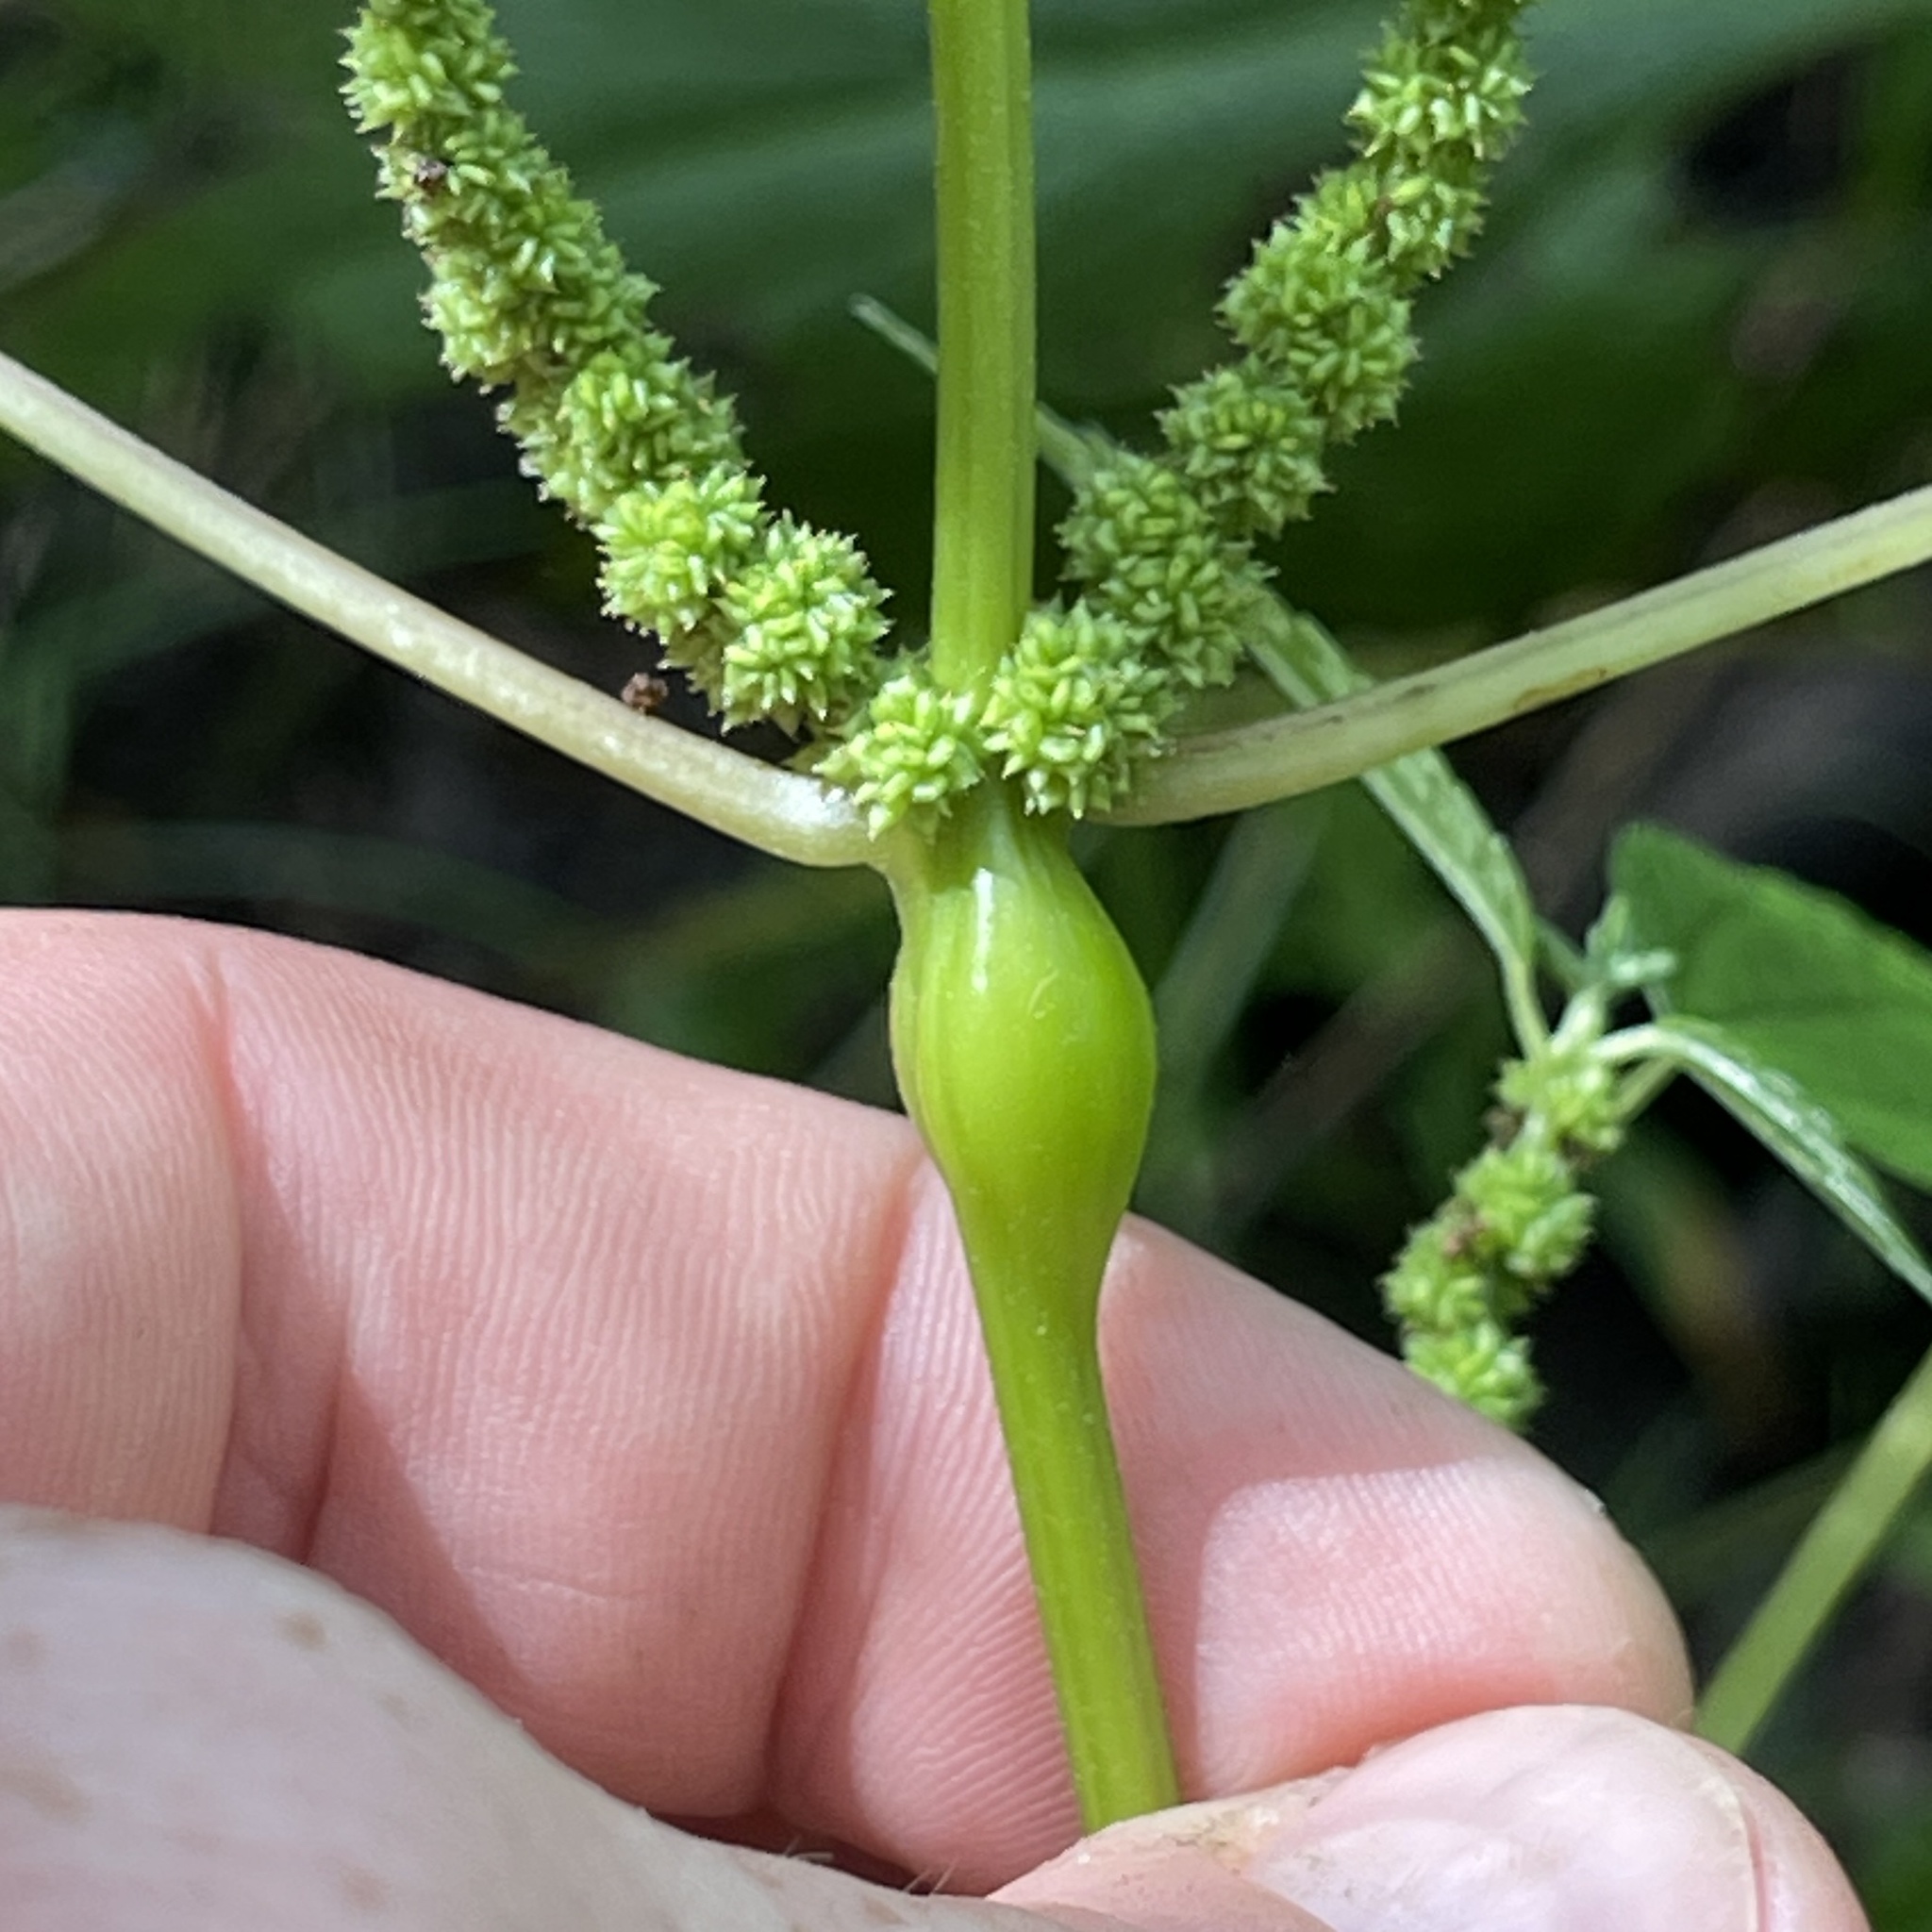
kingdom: Animalia
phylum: Arthropoda
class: Insecta
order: Diptera
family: Cecidomyiidae
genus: Neolasioptera
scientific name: Neolasioptera boehmeriae
